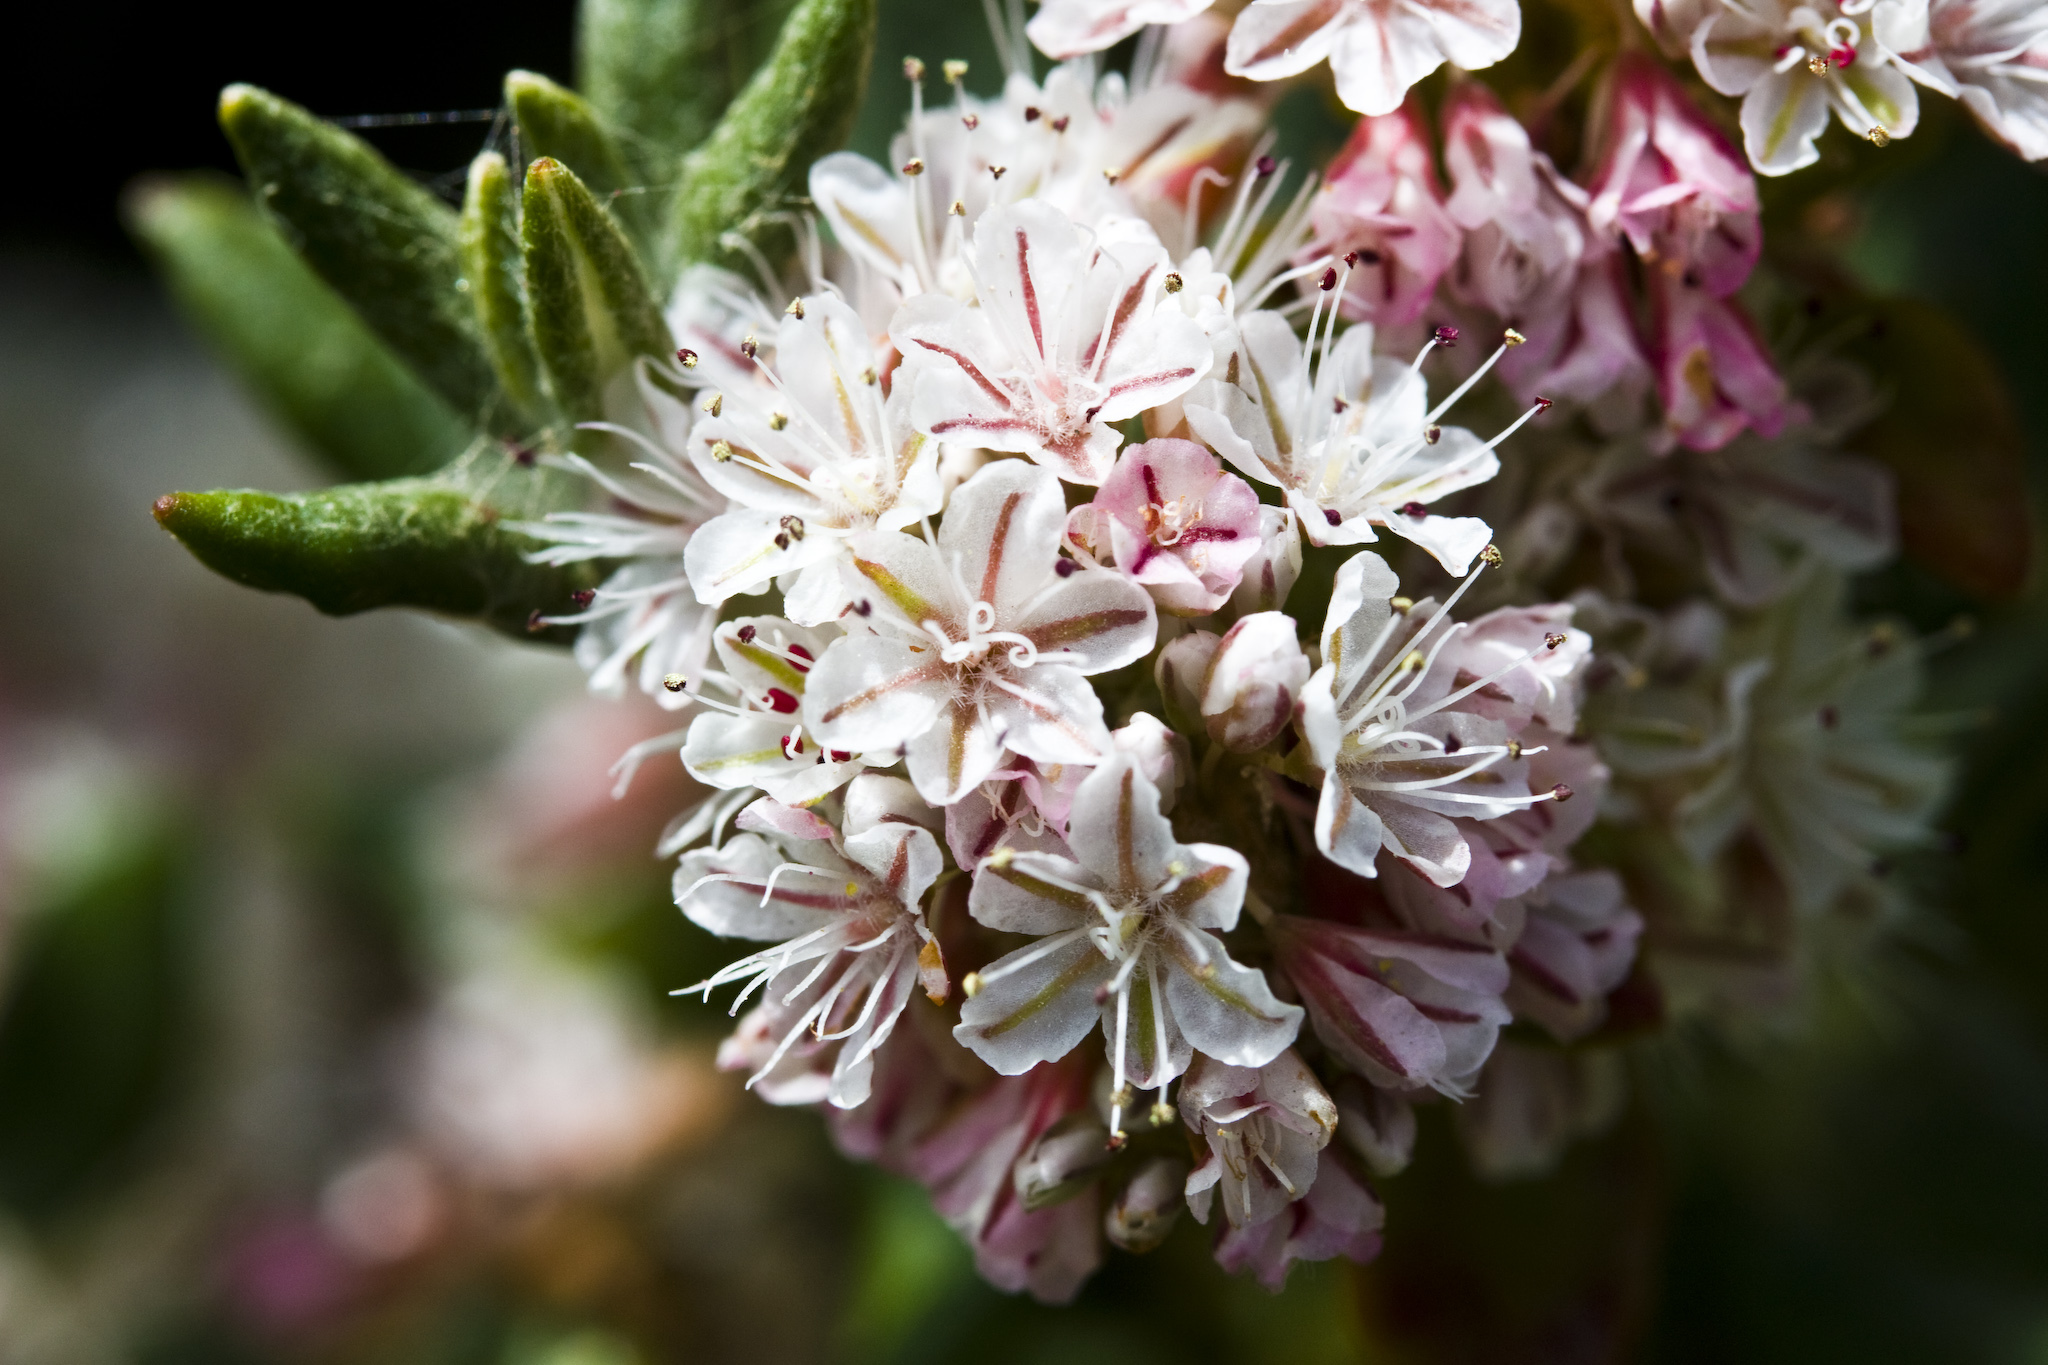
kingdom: Plantae
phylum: Tracheophyta
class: Magnoliopsida
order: Caryophyllales
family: Polygonaceae
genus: Eriogonum
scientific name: Eriogonum parvifolium
